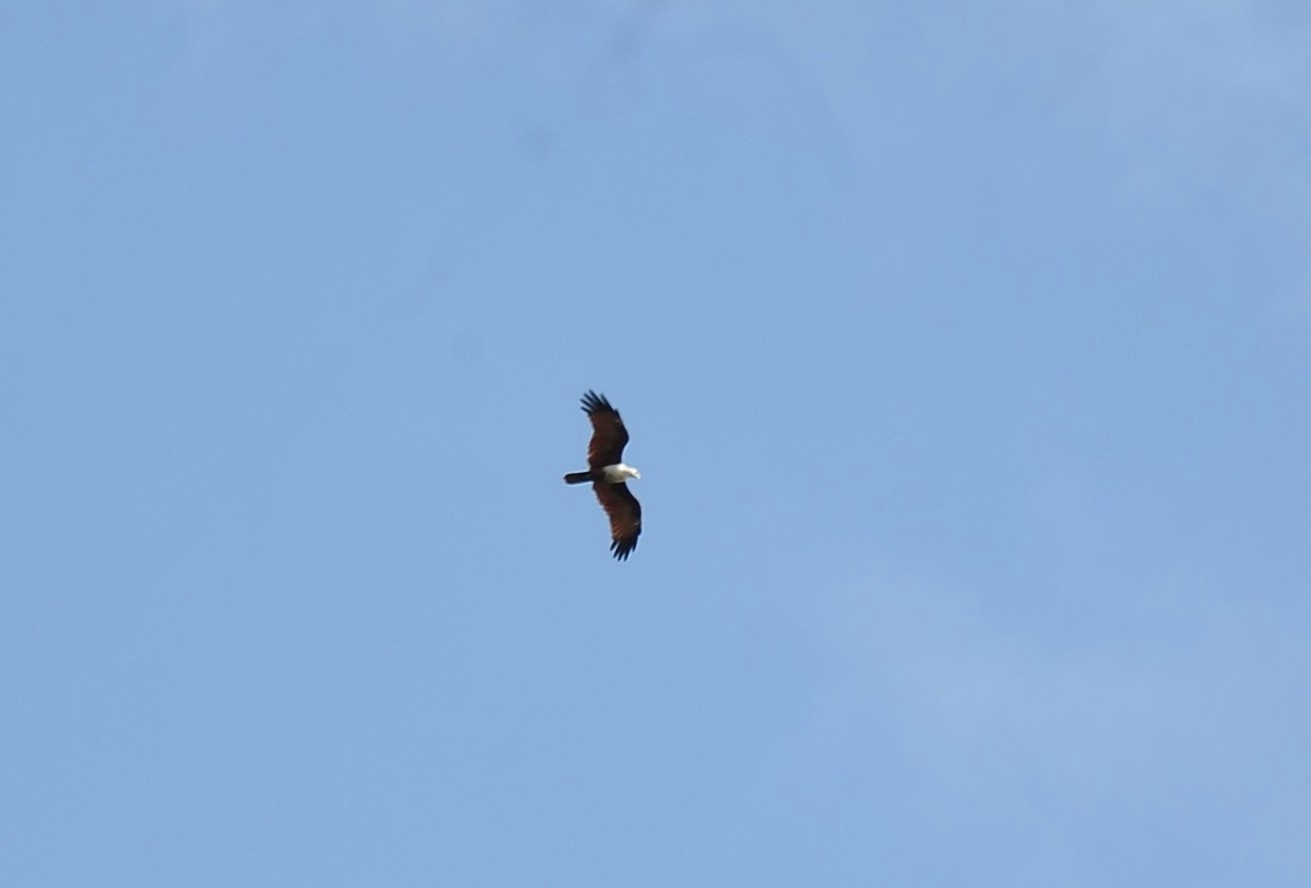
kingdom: Animalia
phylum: Chordata
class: Aves
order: Accipitriformes
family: Accipitridae
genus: Haliastur
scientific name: Haliastur indus
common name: Brahminy kite
